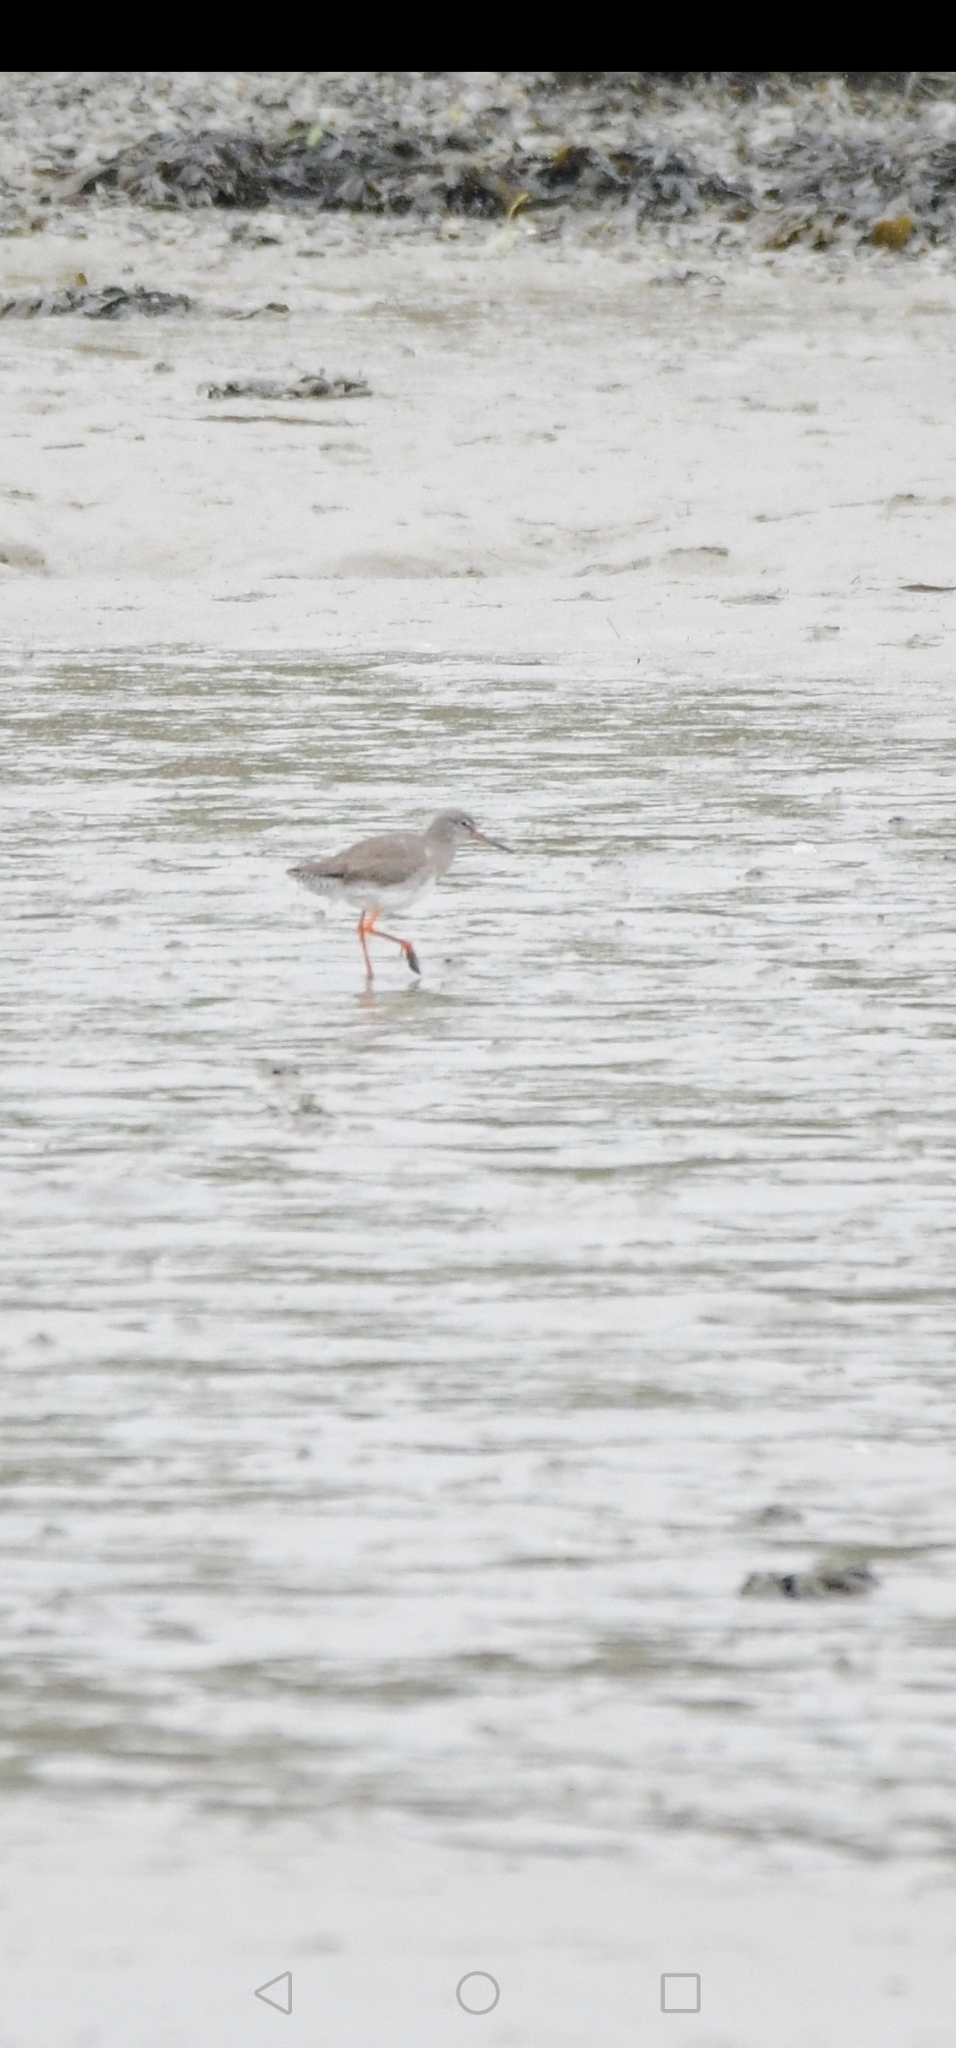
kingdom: Animalia
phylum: Chordata
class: Aves
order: Charadriiformes
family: Scolopacidae
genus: Tringa
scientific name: Tringa totanus
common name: Common redshank
